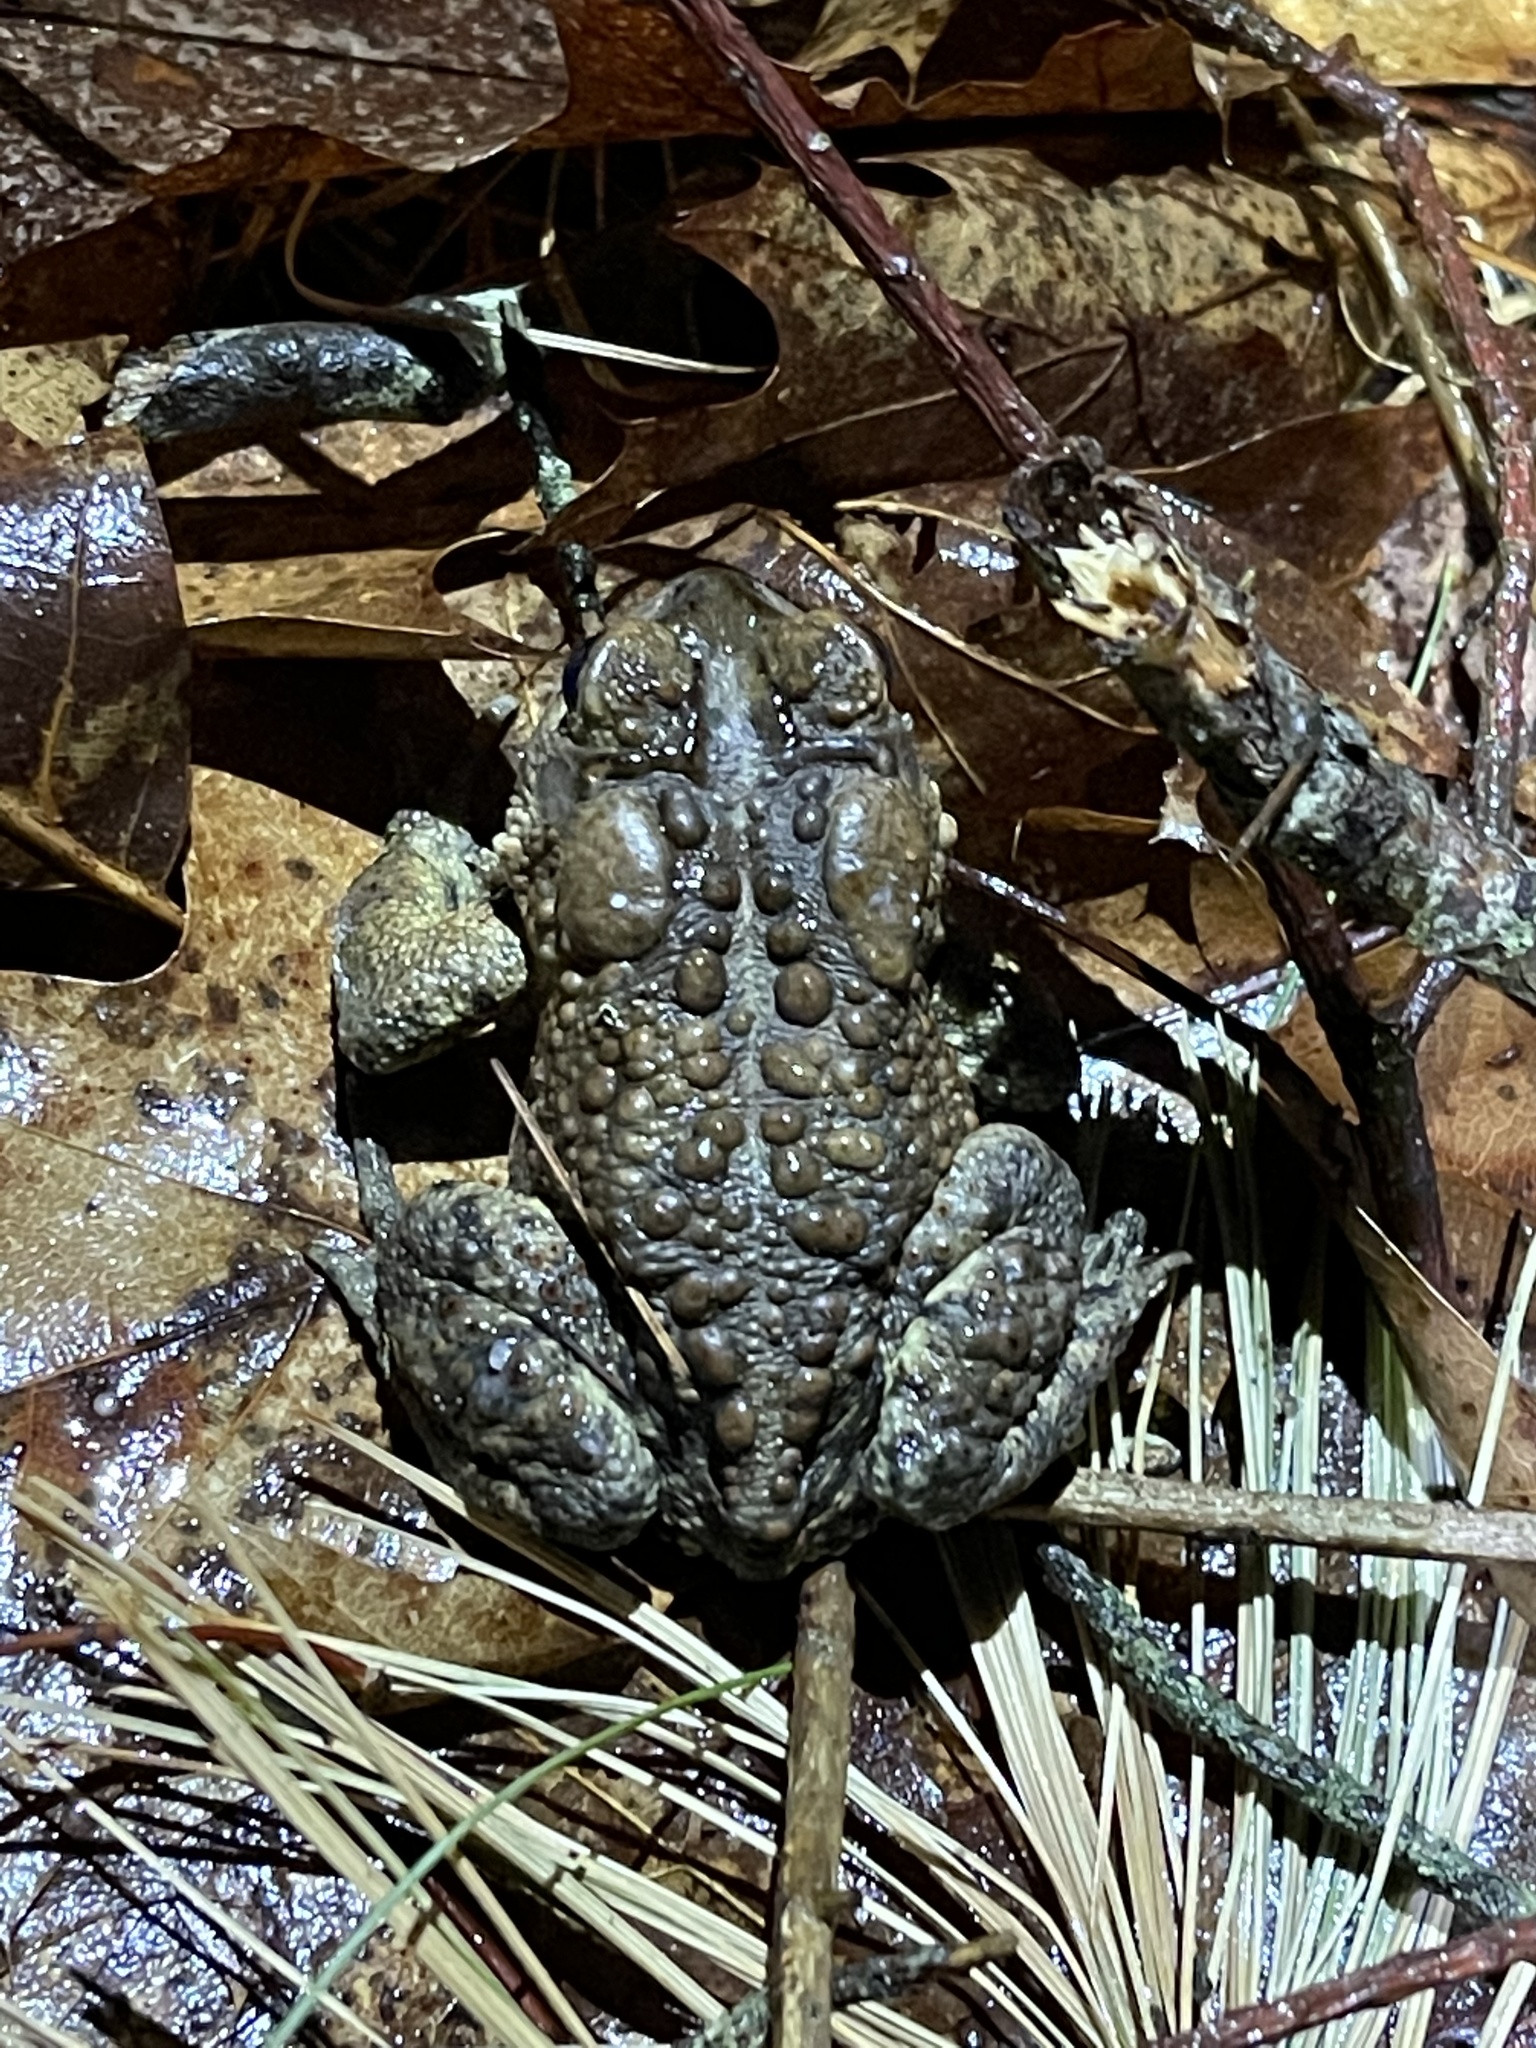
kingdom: Animalia
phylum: Chordata
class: Amphibia
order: Anura
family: Bufonidae
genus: Anaxyrus
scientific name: Anaxyrus americanus
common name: American toad
